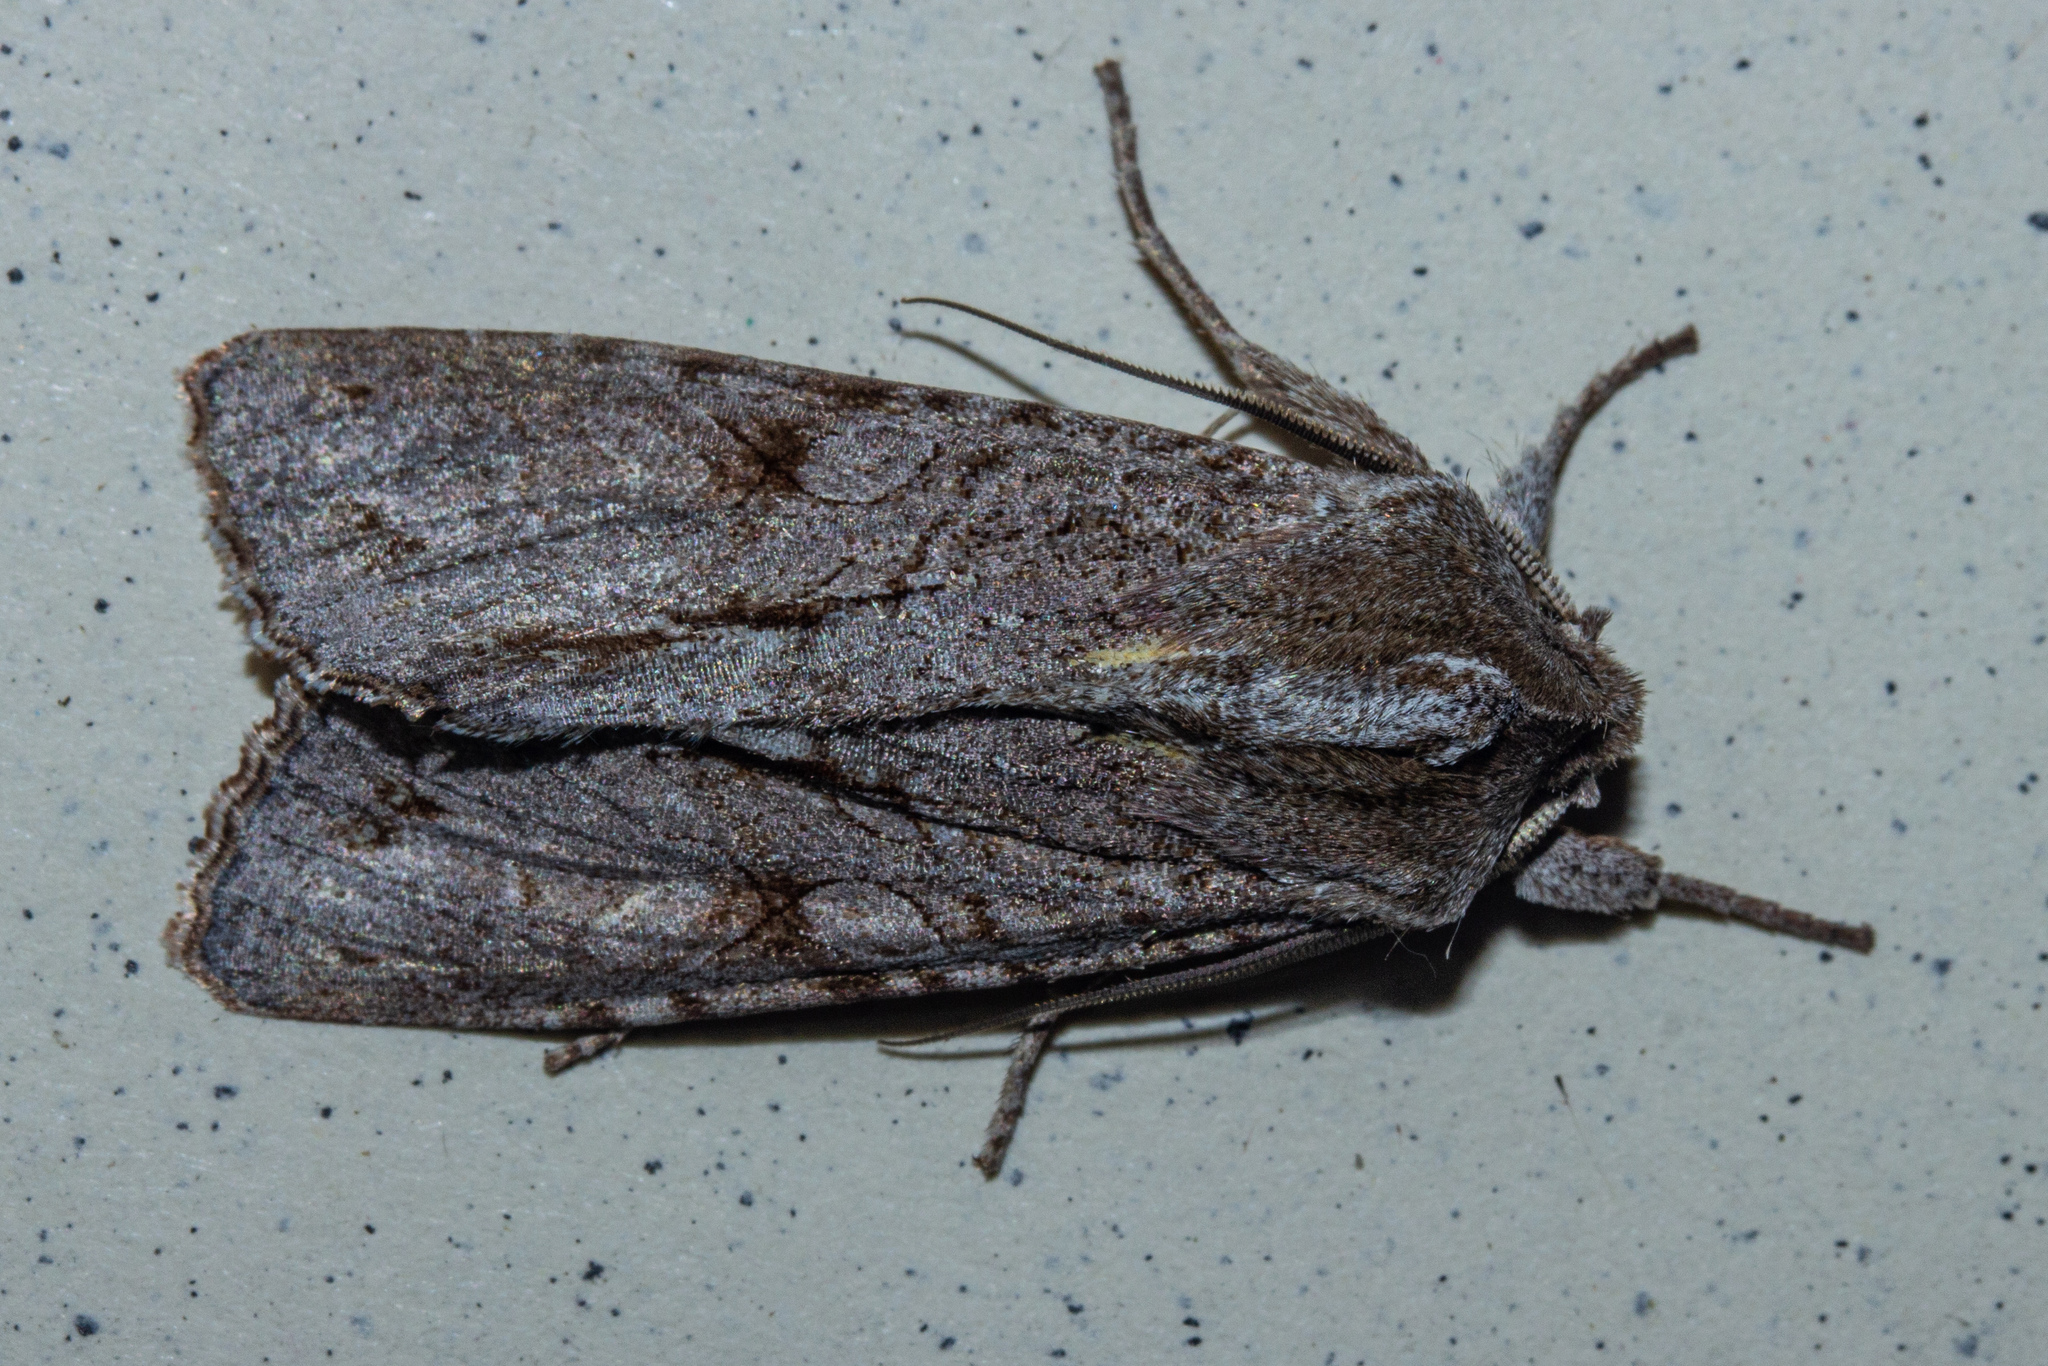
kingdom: Animalia
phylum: Arthropoda
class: Insecta
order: Lepidoptera
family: Noctuidae
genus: Ichneutica
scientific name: Ichneutica
